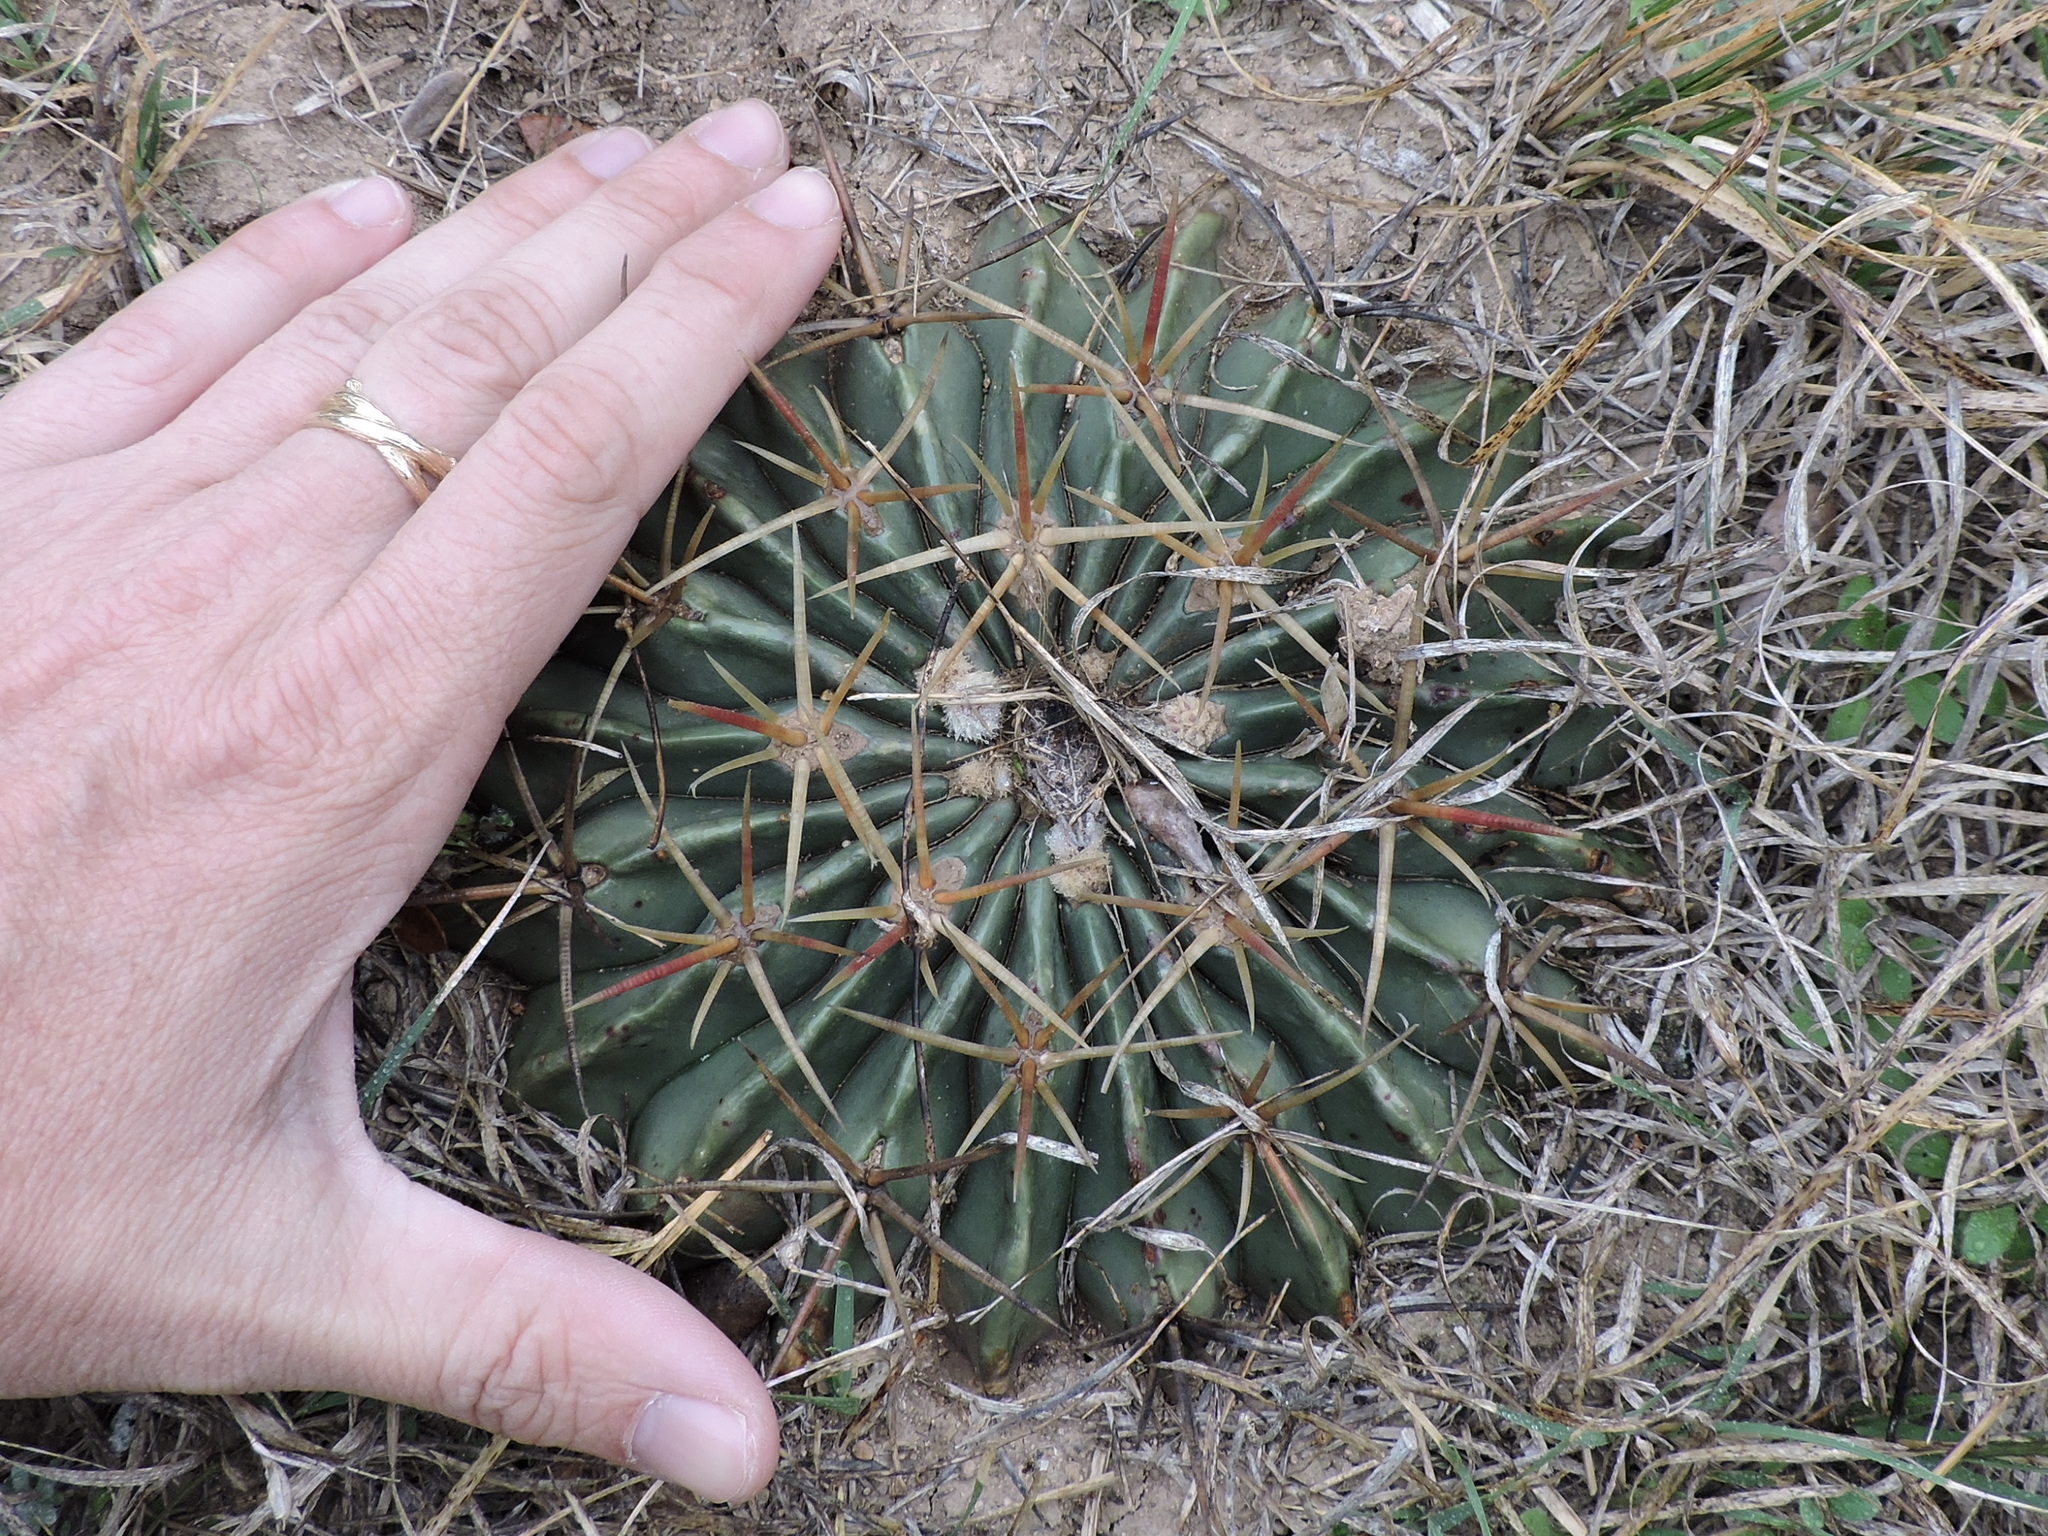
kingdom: Plantae
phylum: Tracheophyta
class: Magnoliopsida
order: Caryophyllales
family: Cactaceae
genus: Echinocactus
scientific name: Echinocactus texensis
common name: Devil's pincushion
